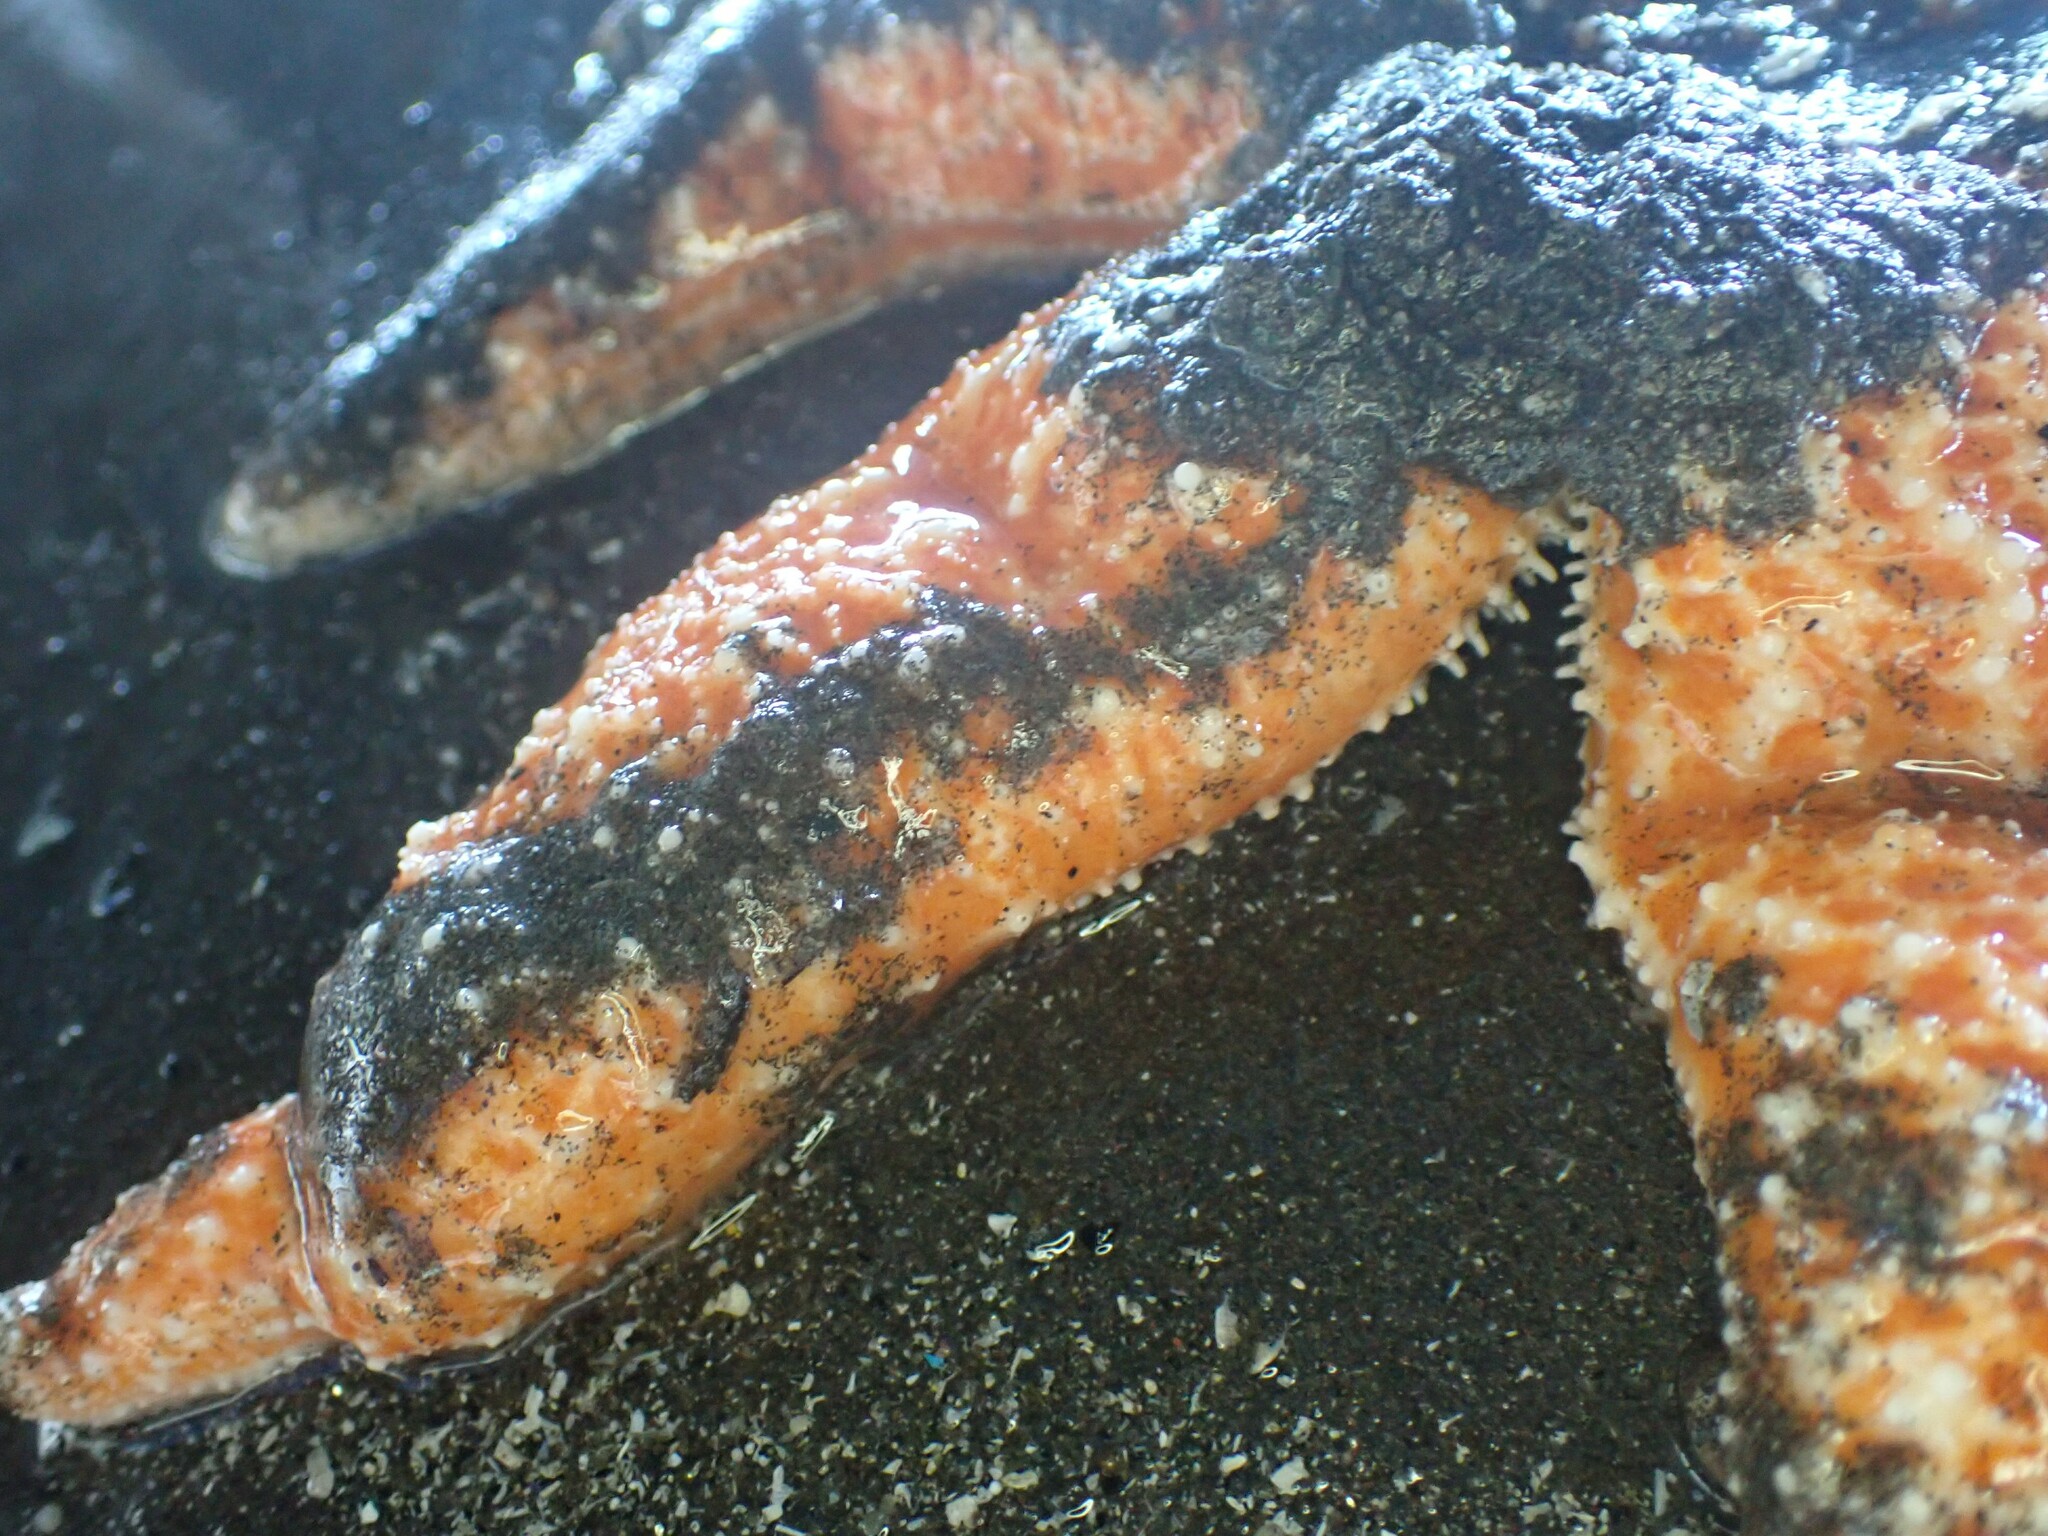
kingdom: Animalia
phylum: Echinodermata
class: Asteroidea
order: Forcipulatida
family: Asteriidae
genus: Evasterias
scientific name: Evasterias troschelii
